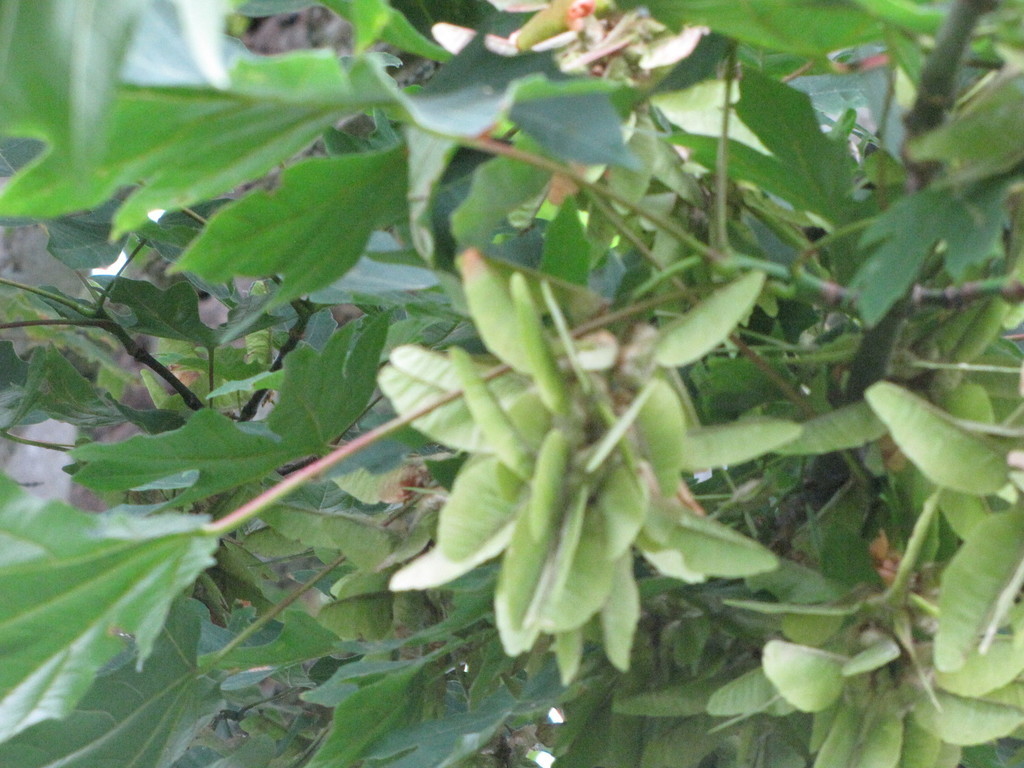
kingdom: Plantae
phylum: Tracheophyta
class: Magnoliopsida
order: Sapindales
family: Sapindaceae
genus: Acer
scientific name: Acer macrophyllum
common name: Oregon maple
